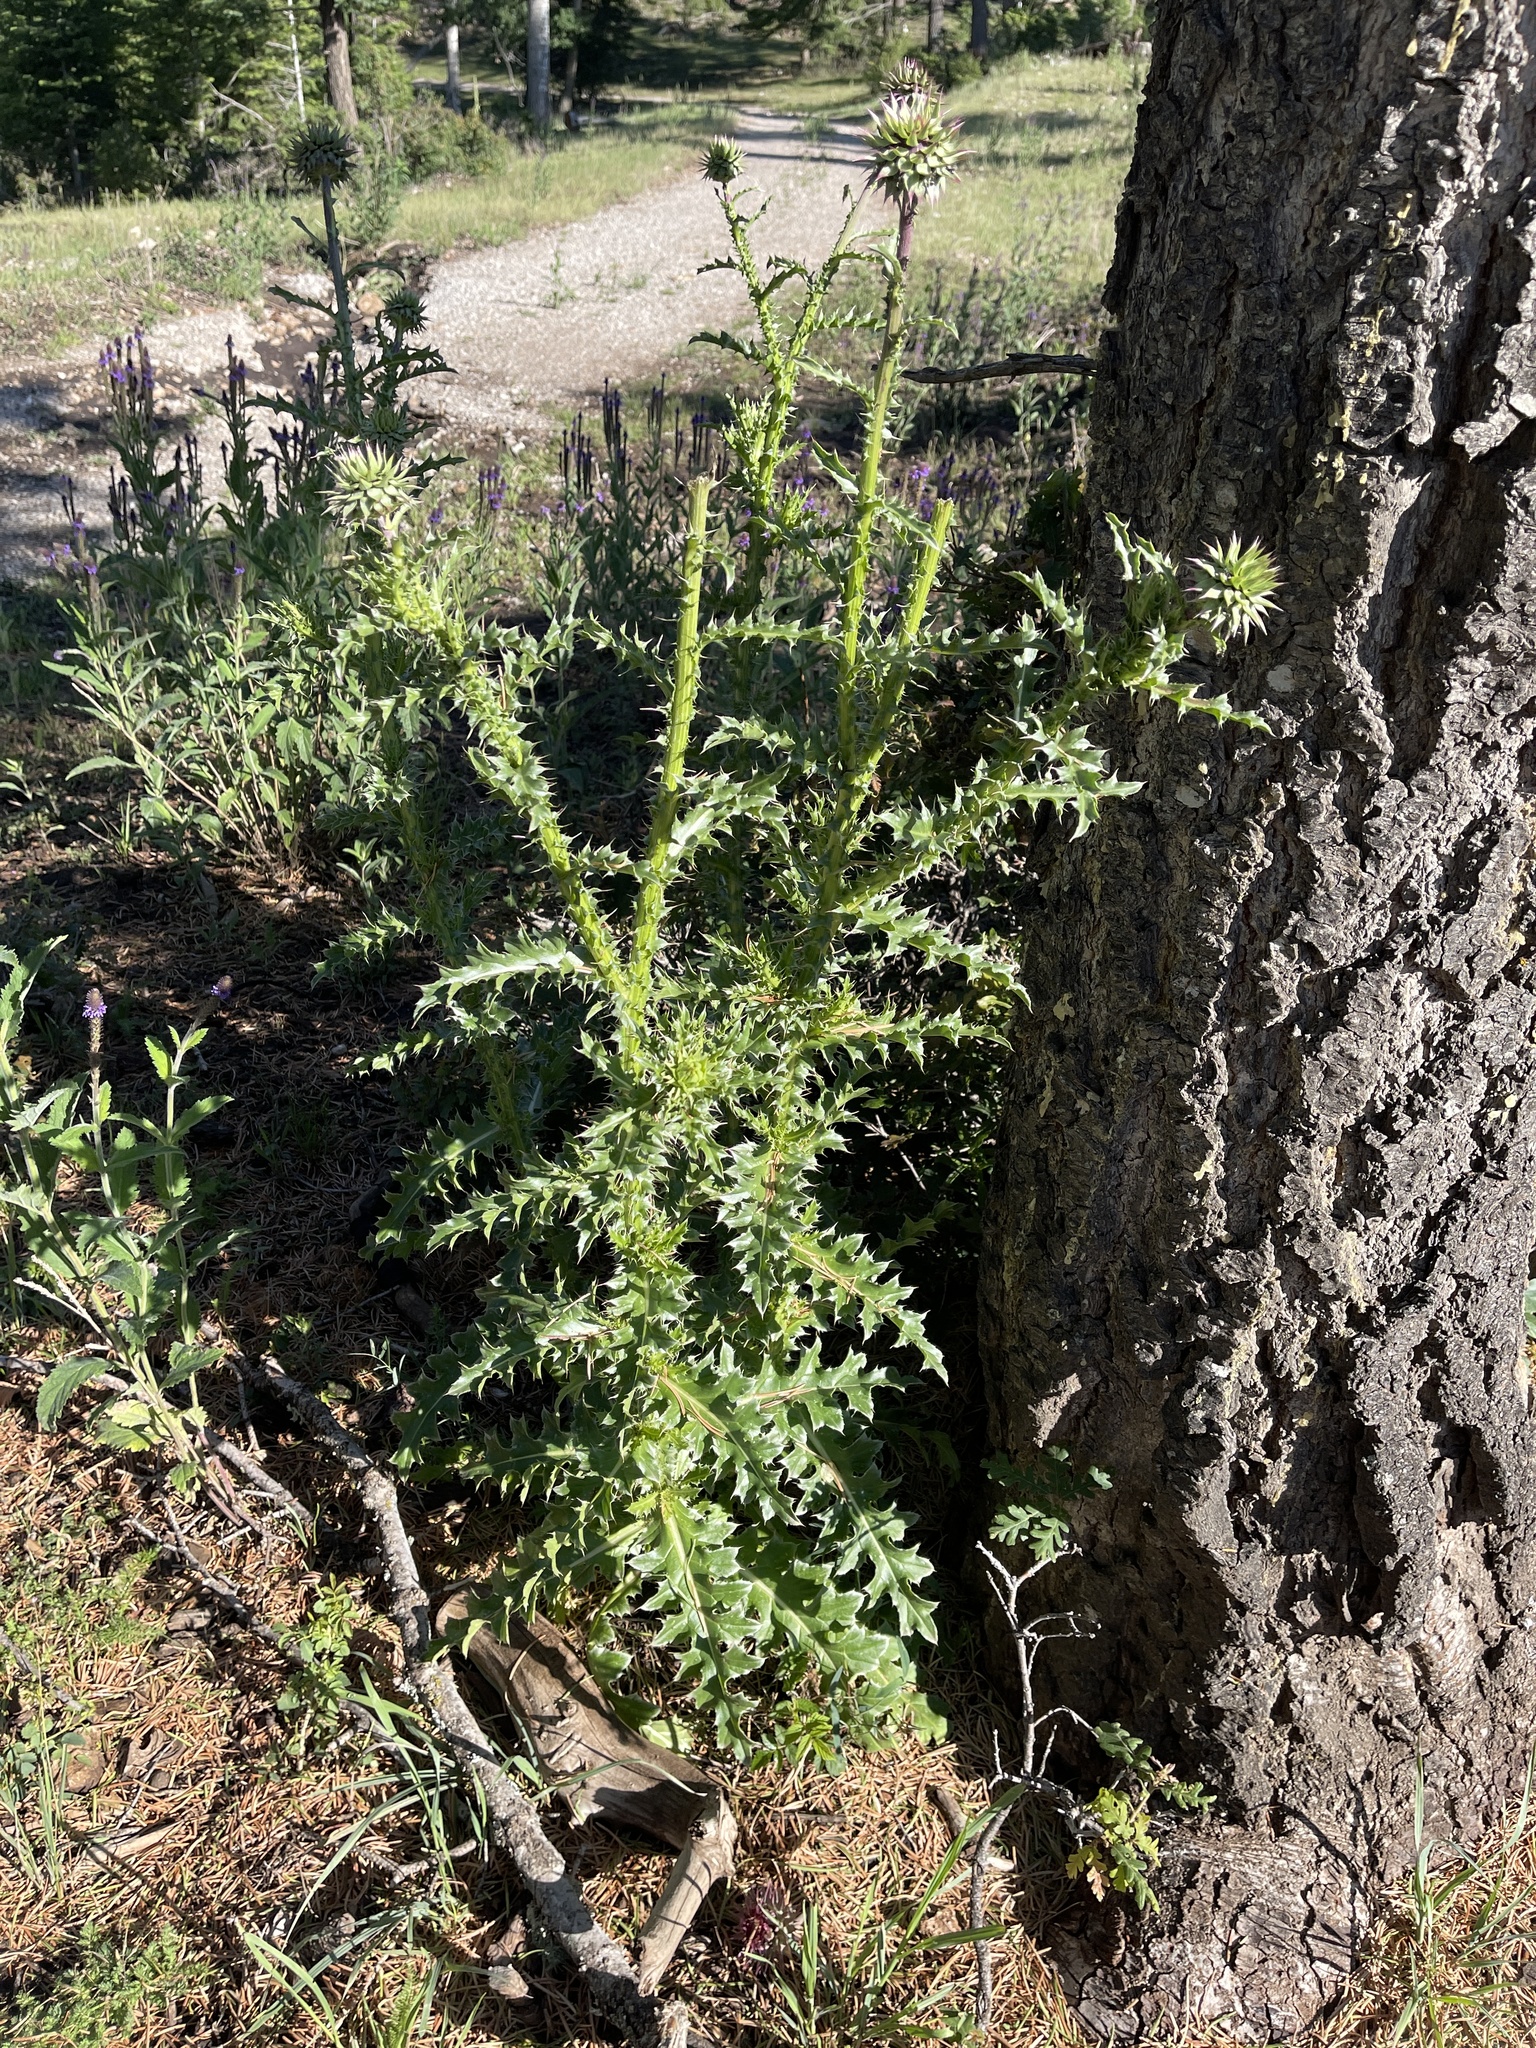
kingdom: Plantae
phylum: Tracheophyta
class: Magnoliopsida
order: Asterales
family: Asteraceae
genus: Carduus
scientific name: Carduus nutans
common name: Musk thistle
